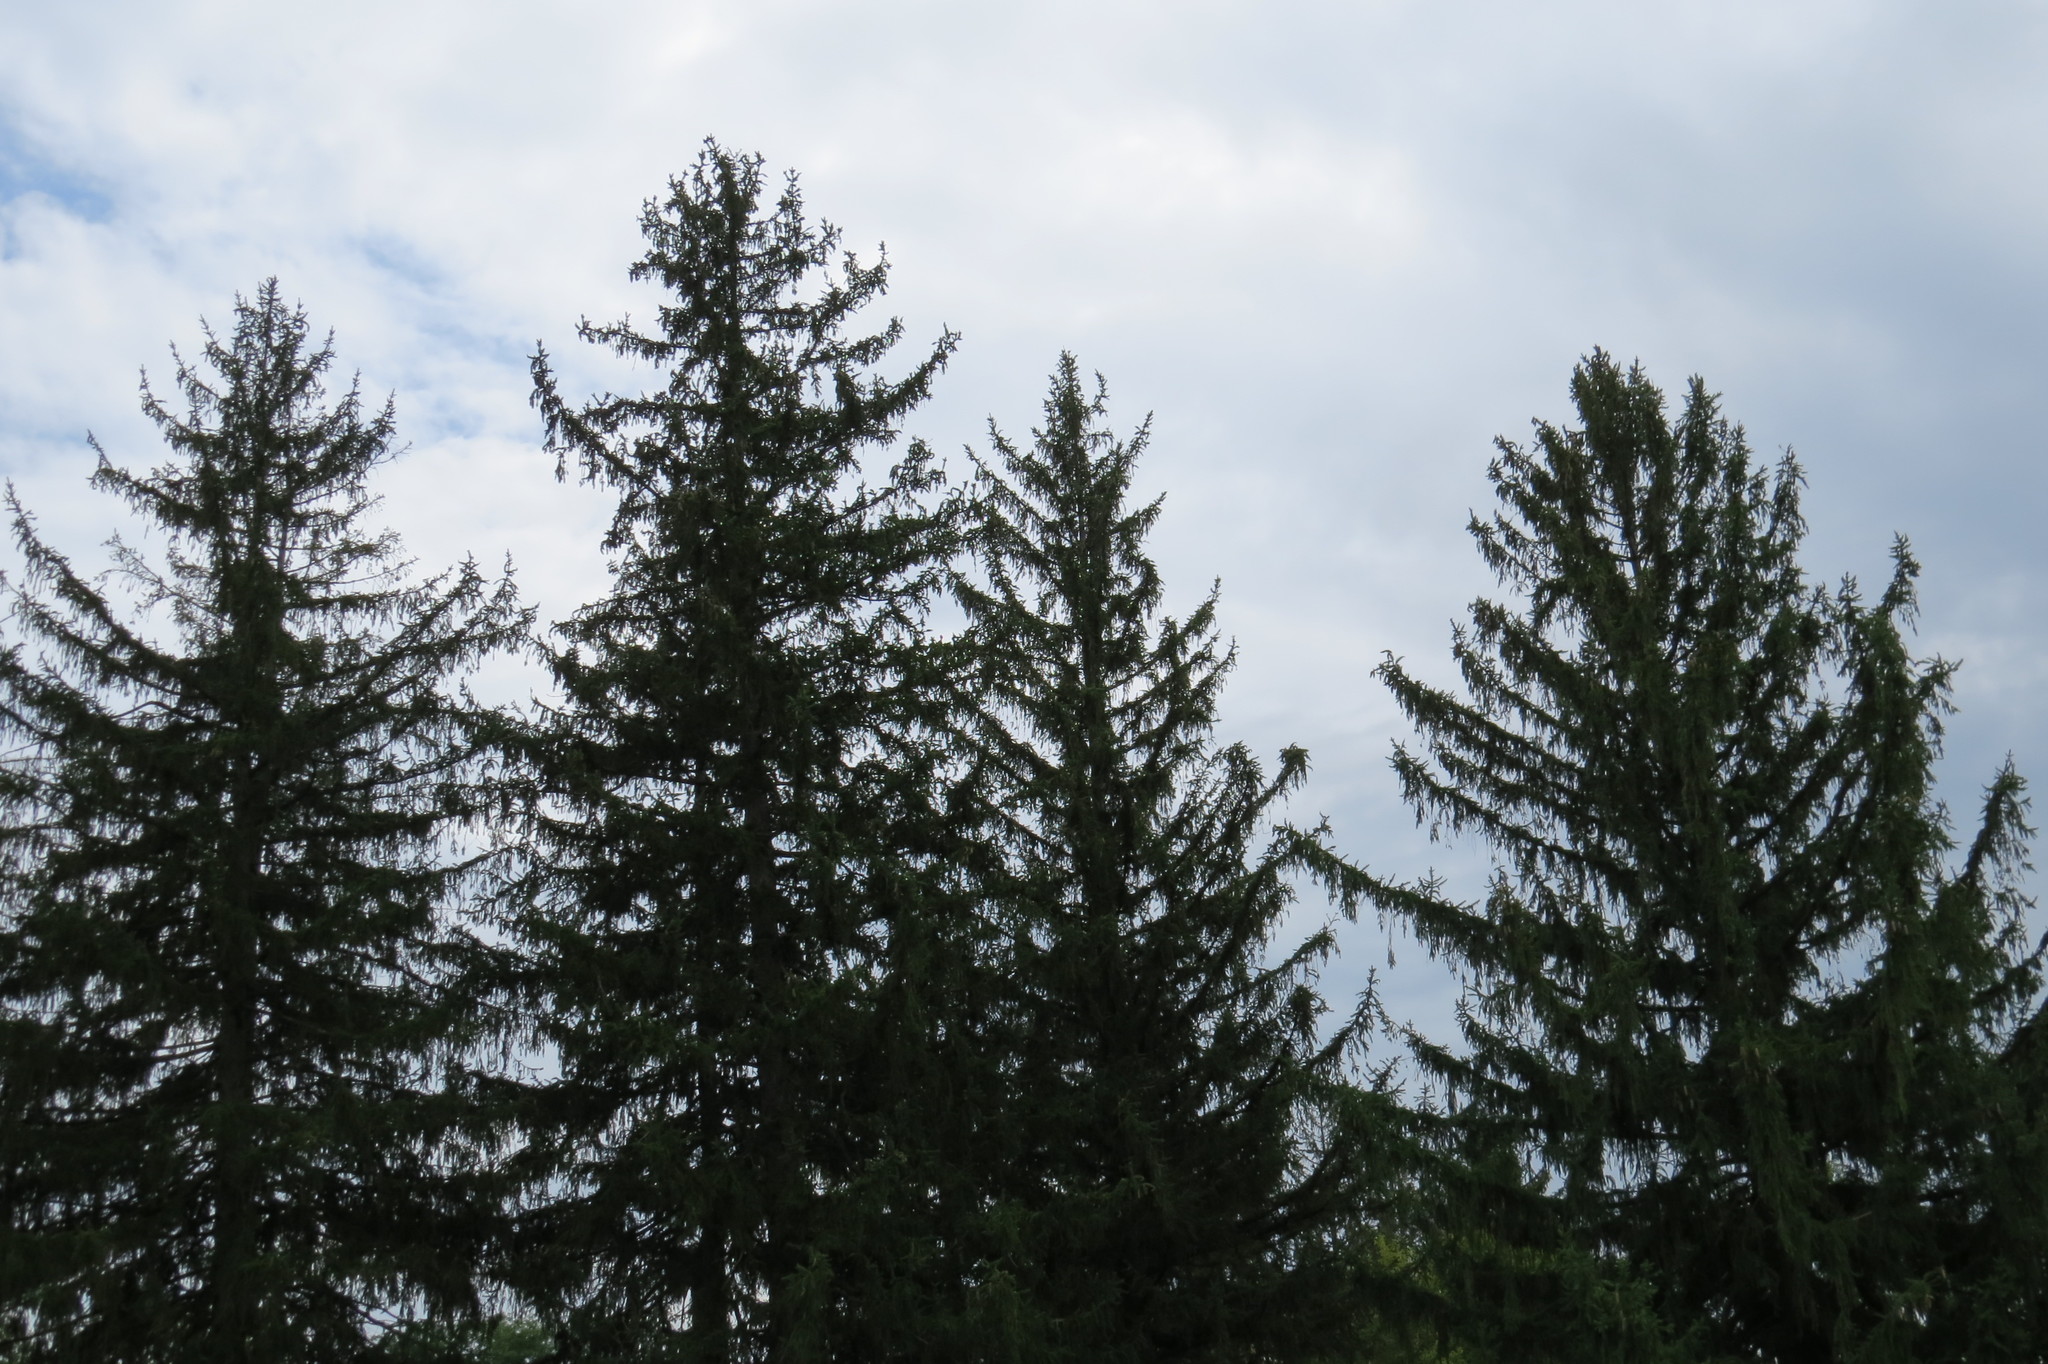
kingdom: Plantae
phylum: Tracheophyta
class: Pinopsida
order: Pinales
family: Pinaceae
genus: Picea
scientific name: Picea abies
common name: Norway spruce
